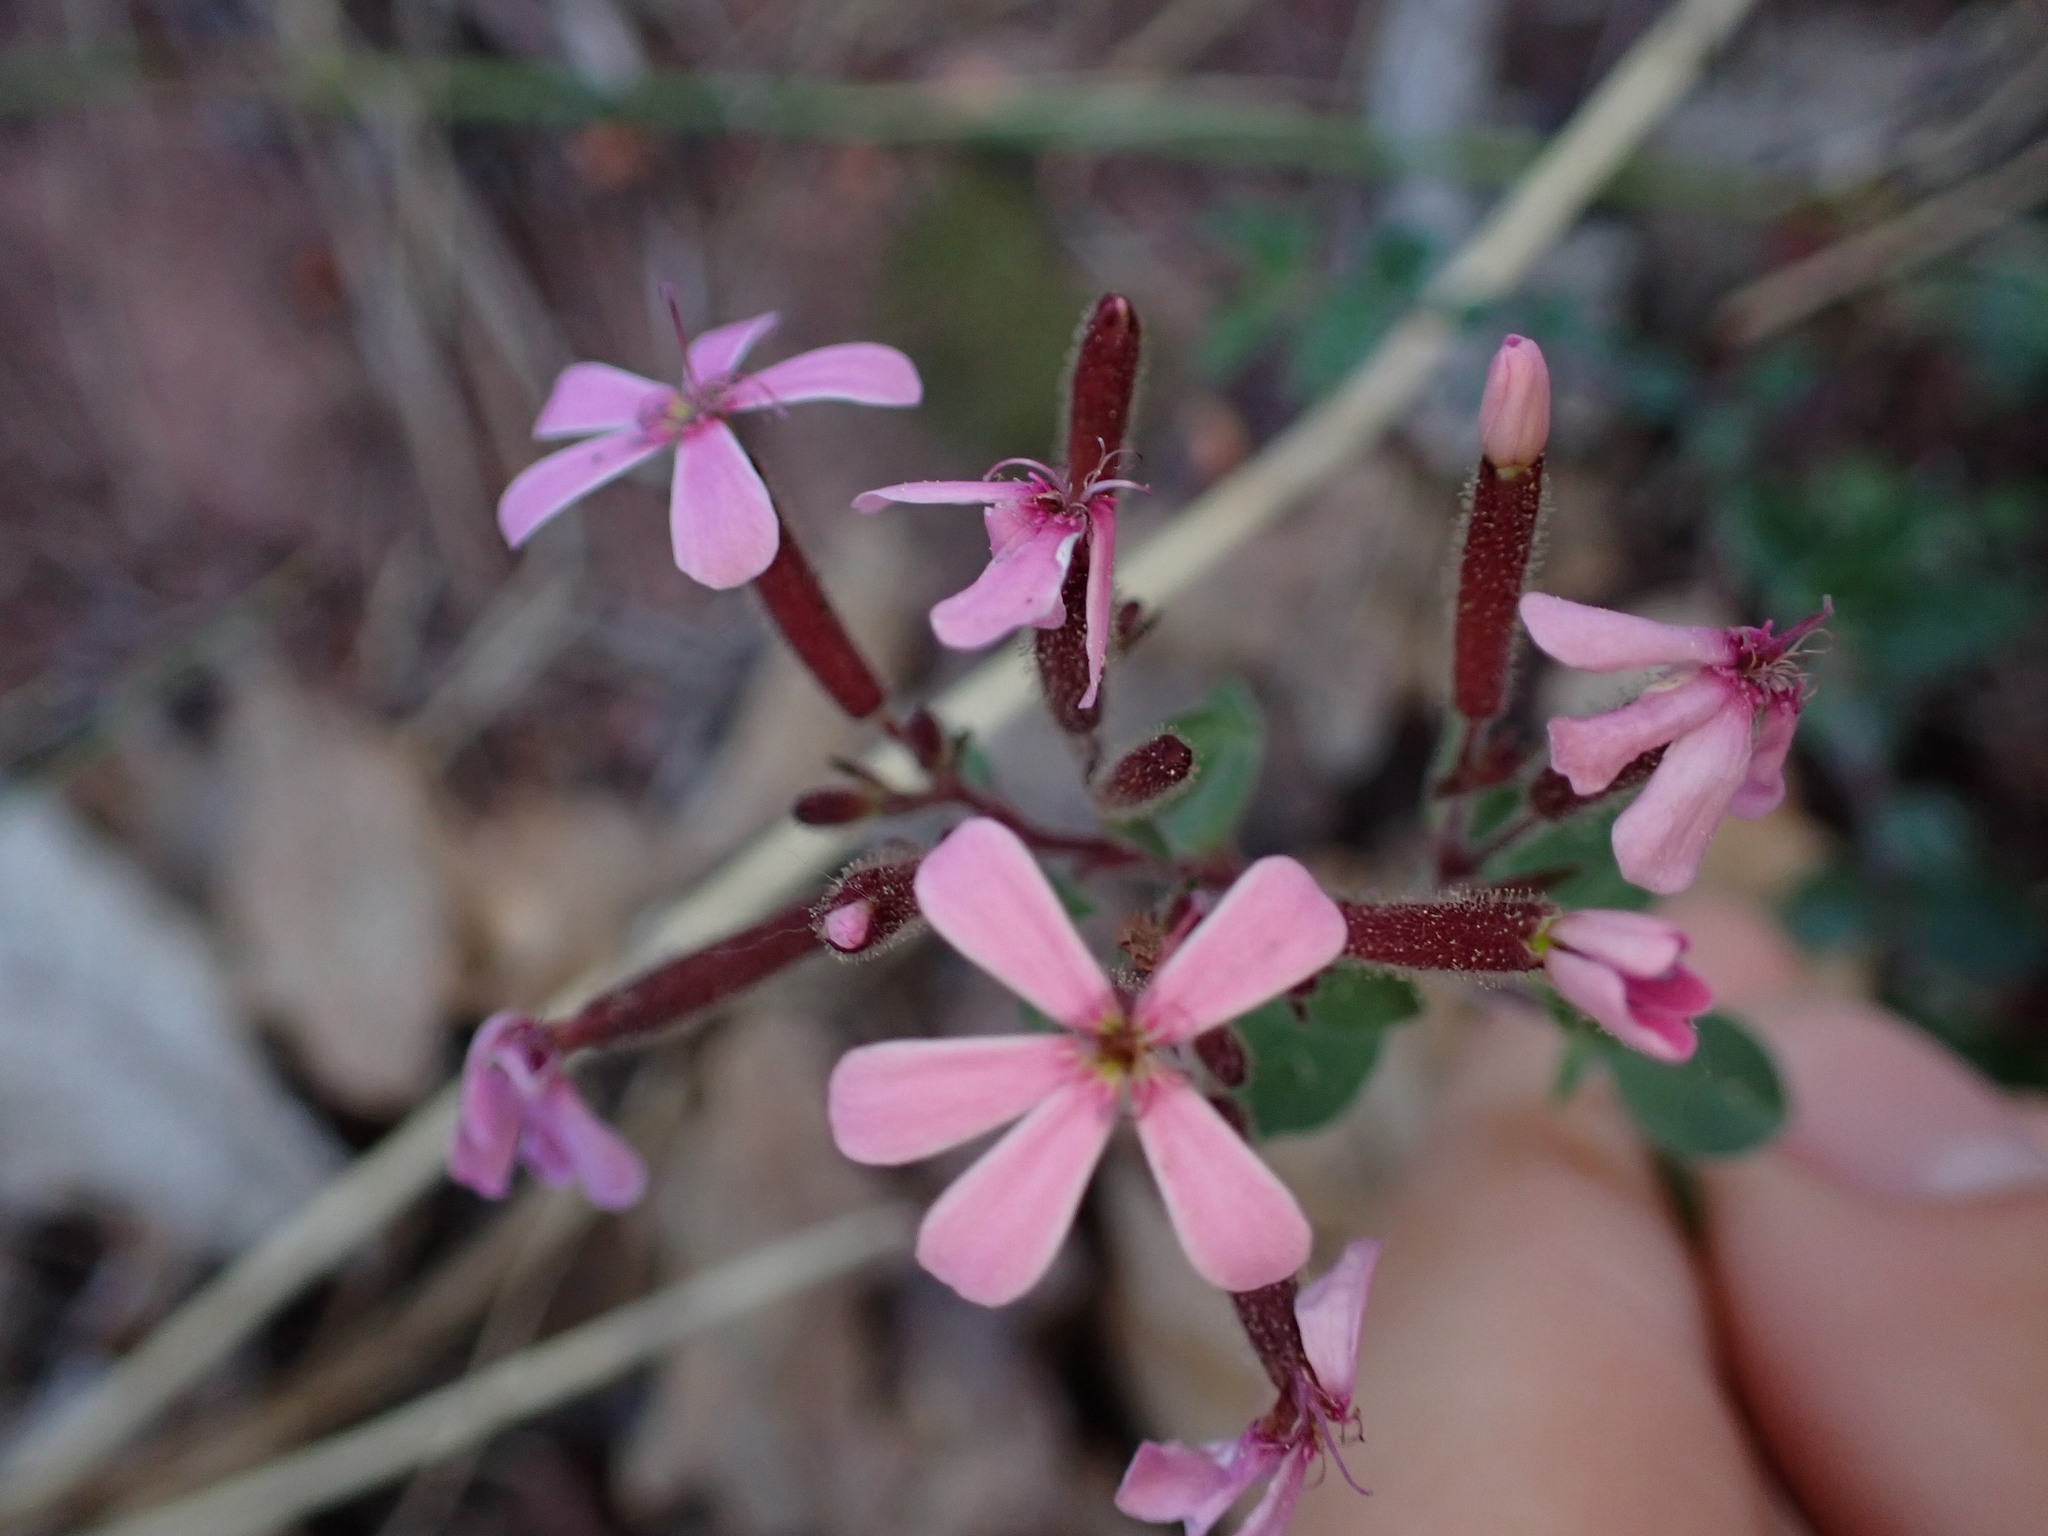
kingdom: Plantae
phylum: Tracheophyta
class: Magnoliopsida
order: Caryophyllales
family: Caryophyllaceae
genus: Saponaria
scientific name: Saponaria ocymoides
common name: Rock soapwort
